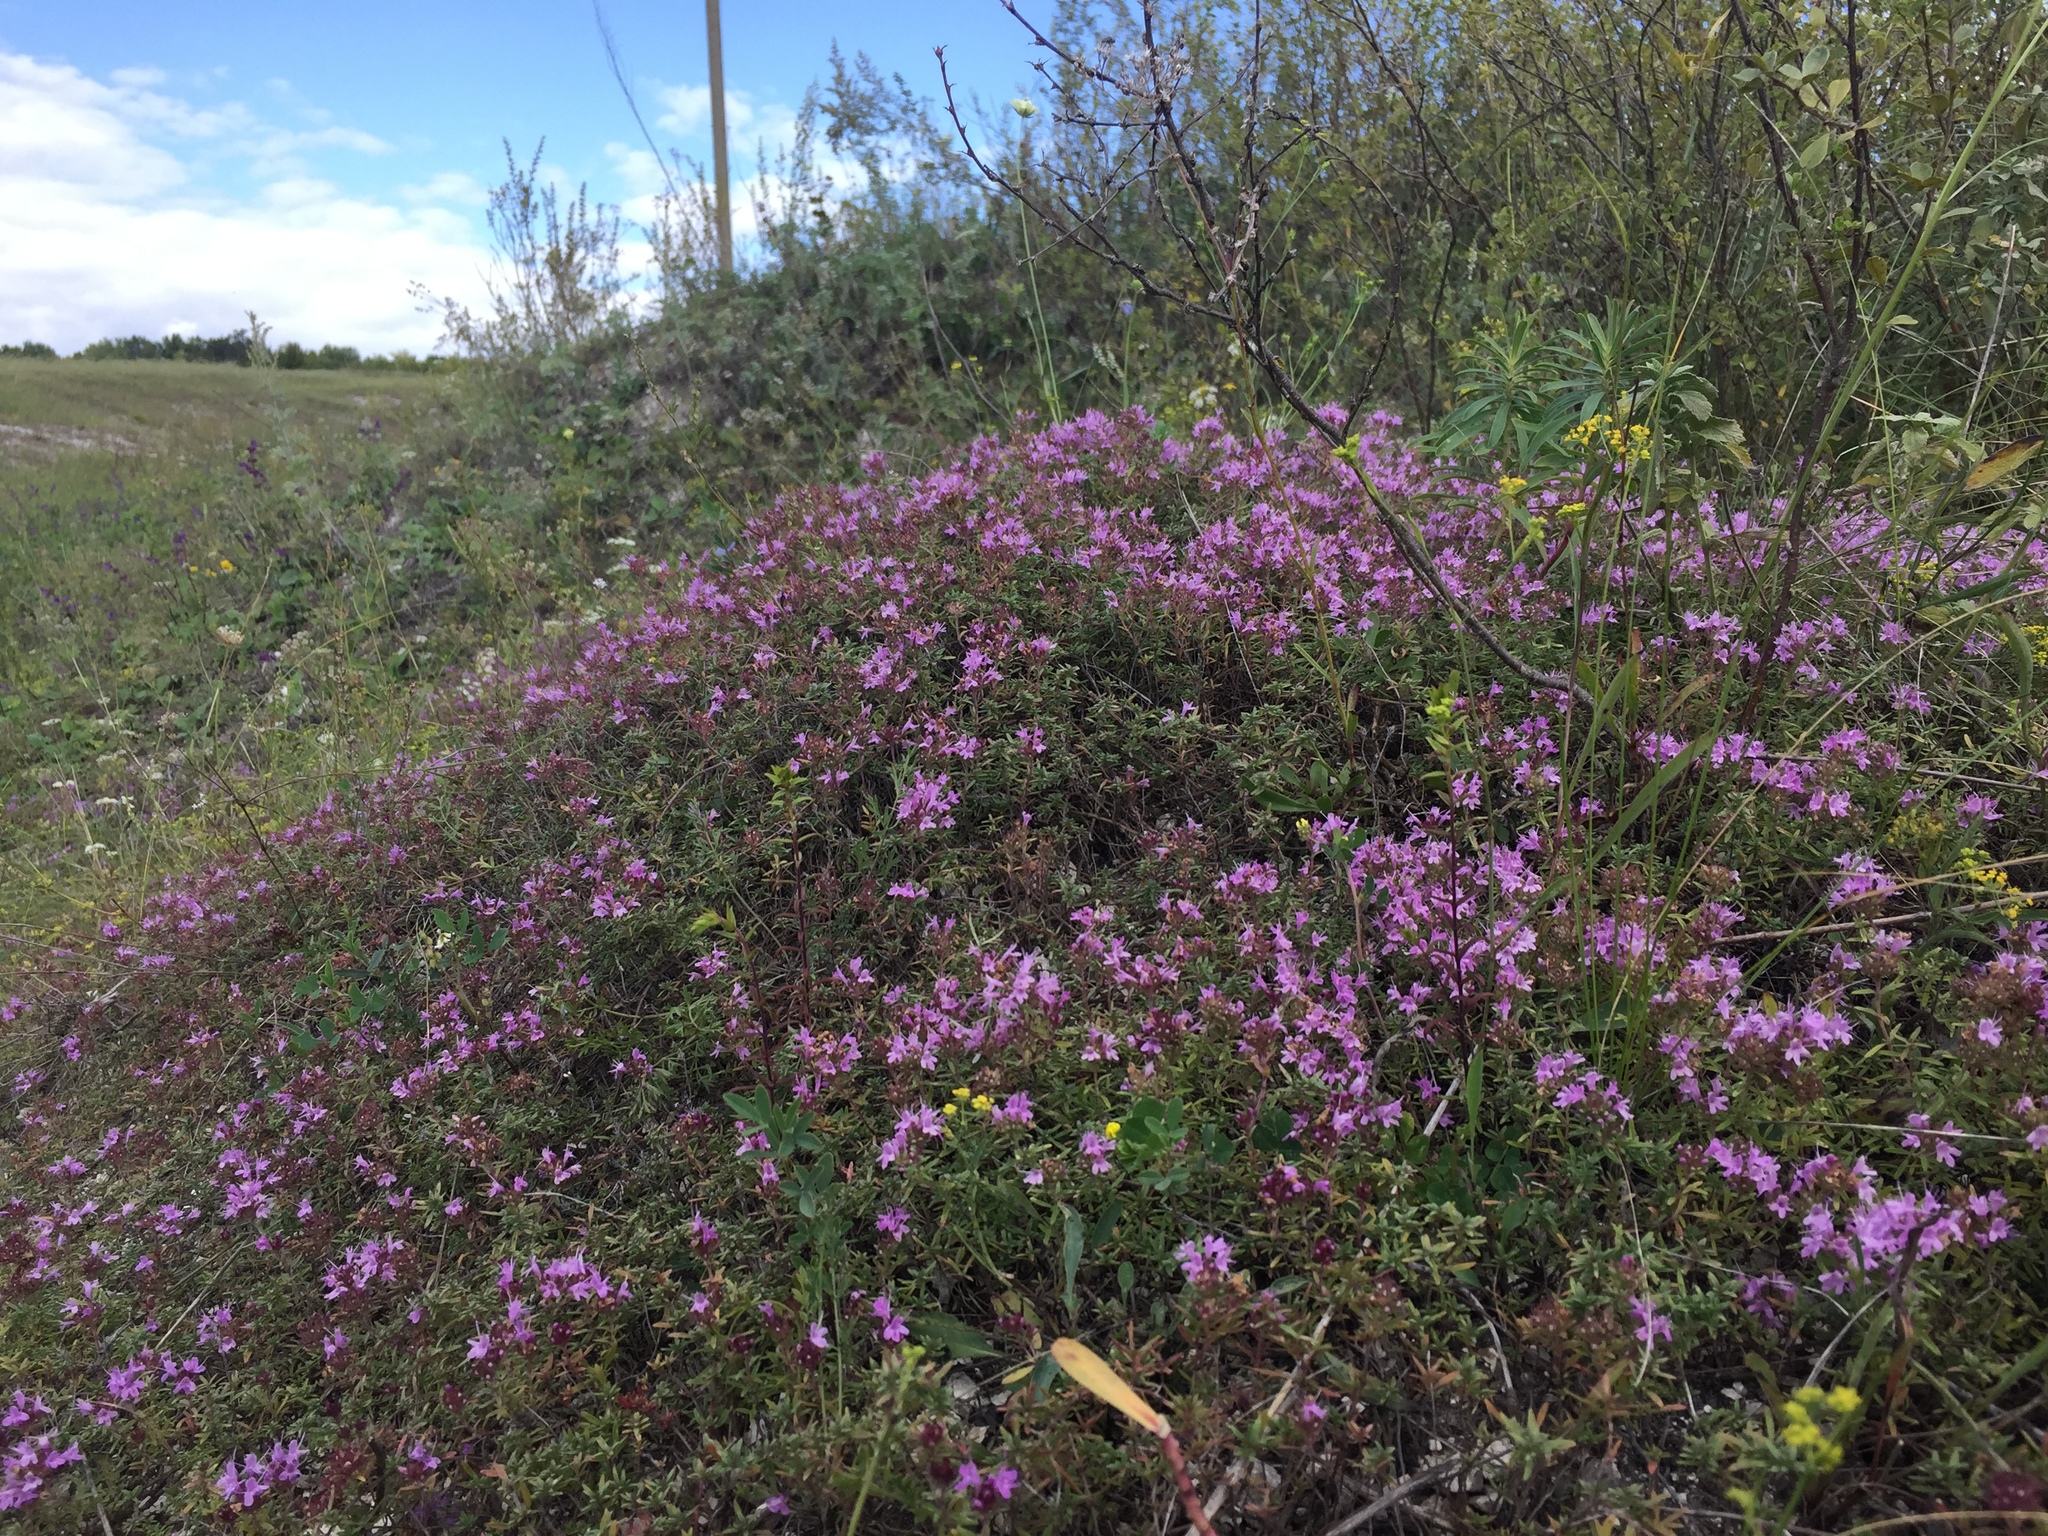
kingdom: Plantae
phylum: Tracheophyta
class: Magnoliopsida
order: Lamiales
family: Lamiaceae
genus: Thymus
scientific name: Thymus calcareus
